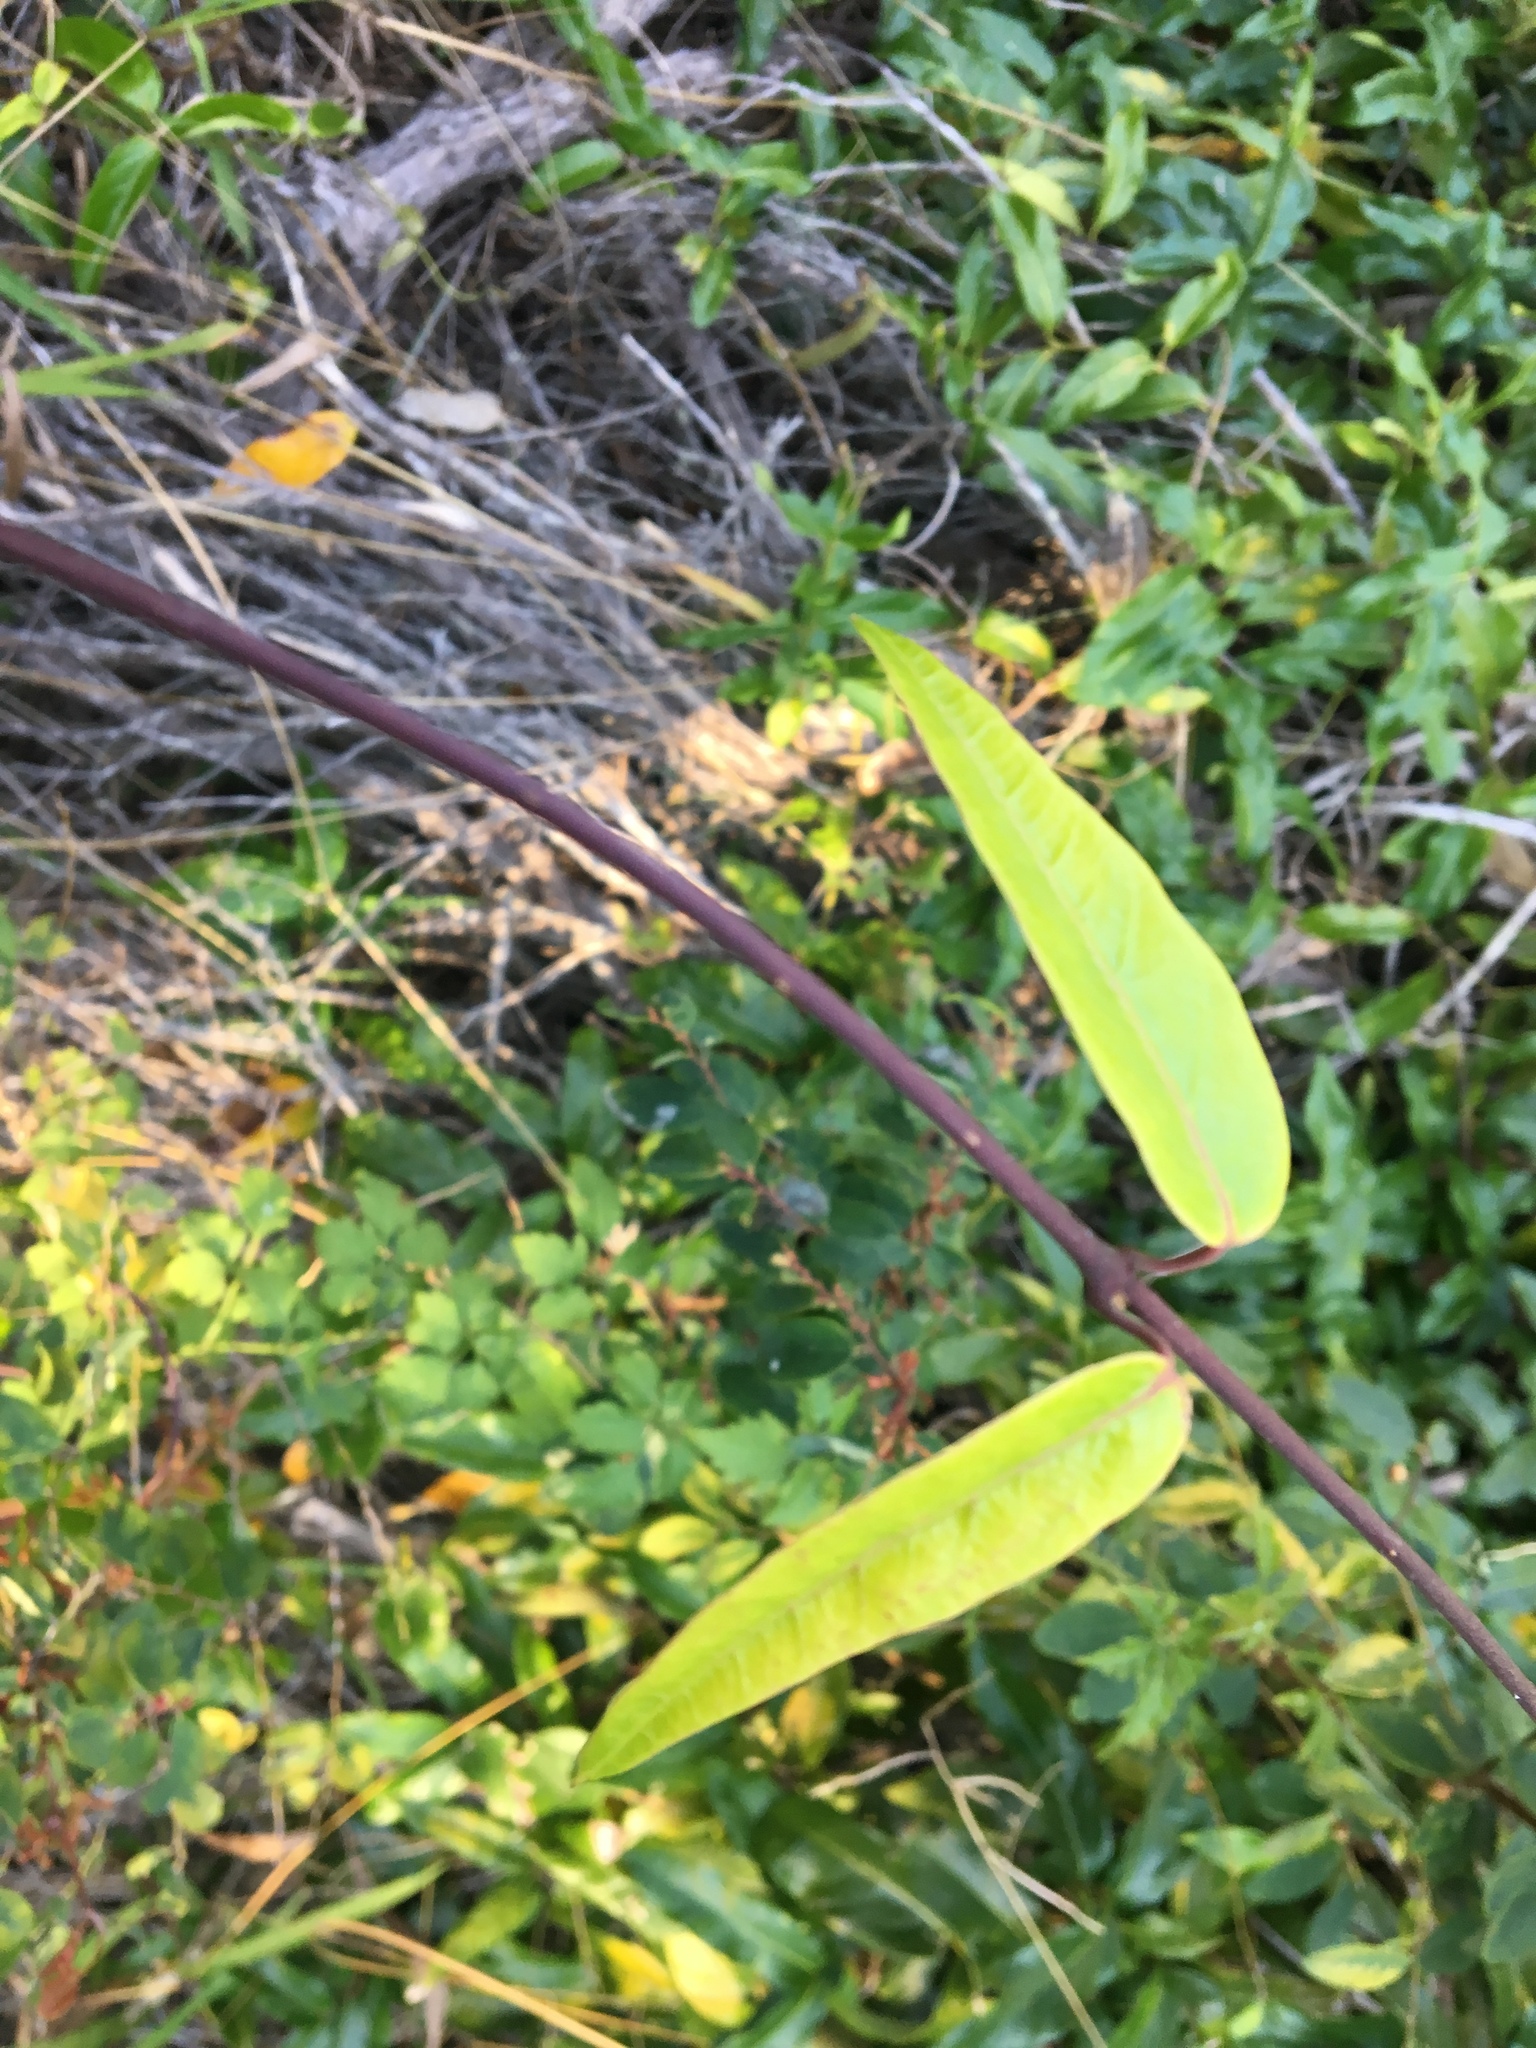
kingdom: Plantae
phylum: Tracheophyta
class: Magnoliopsida
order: Gentianales
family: Apocynaceae
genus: Parsonsia
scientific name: Parsonsia straminea
